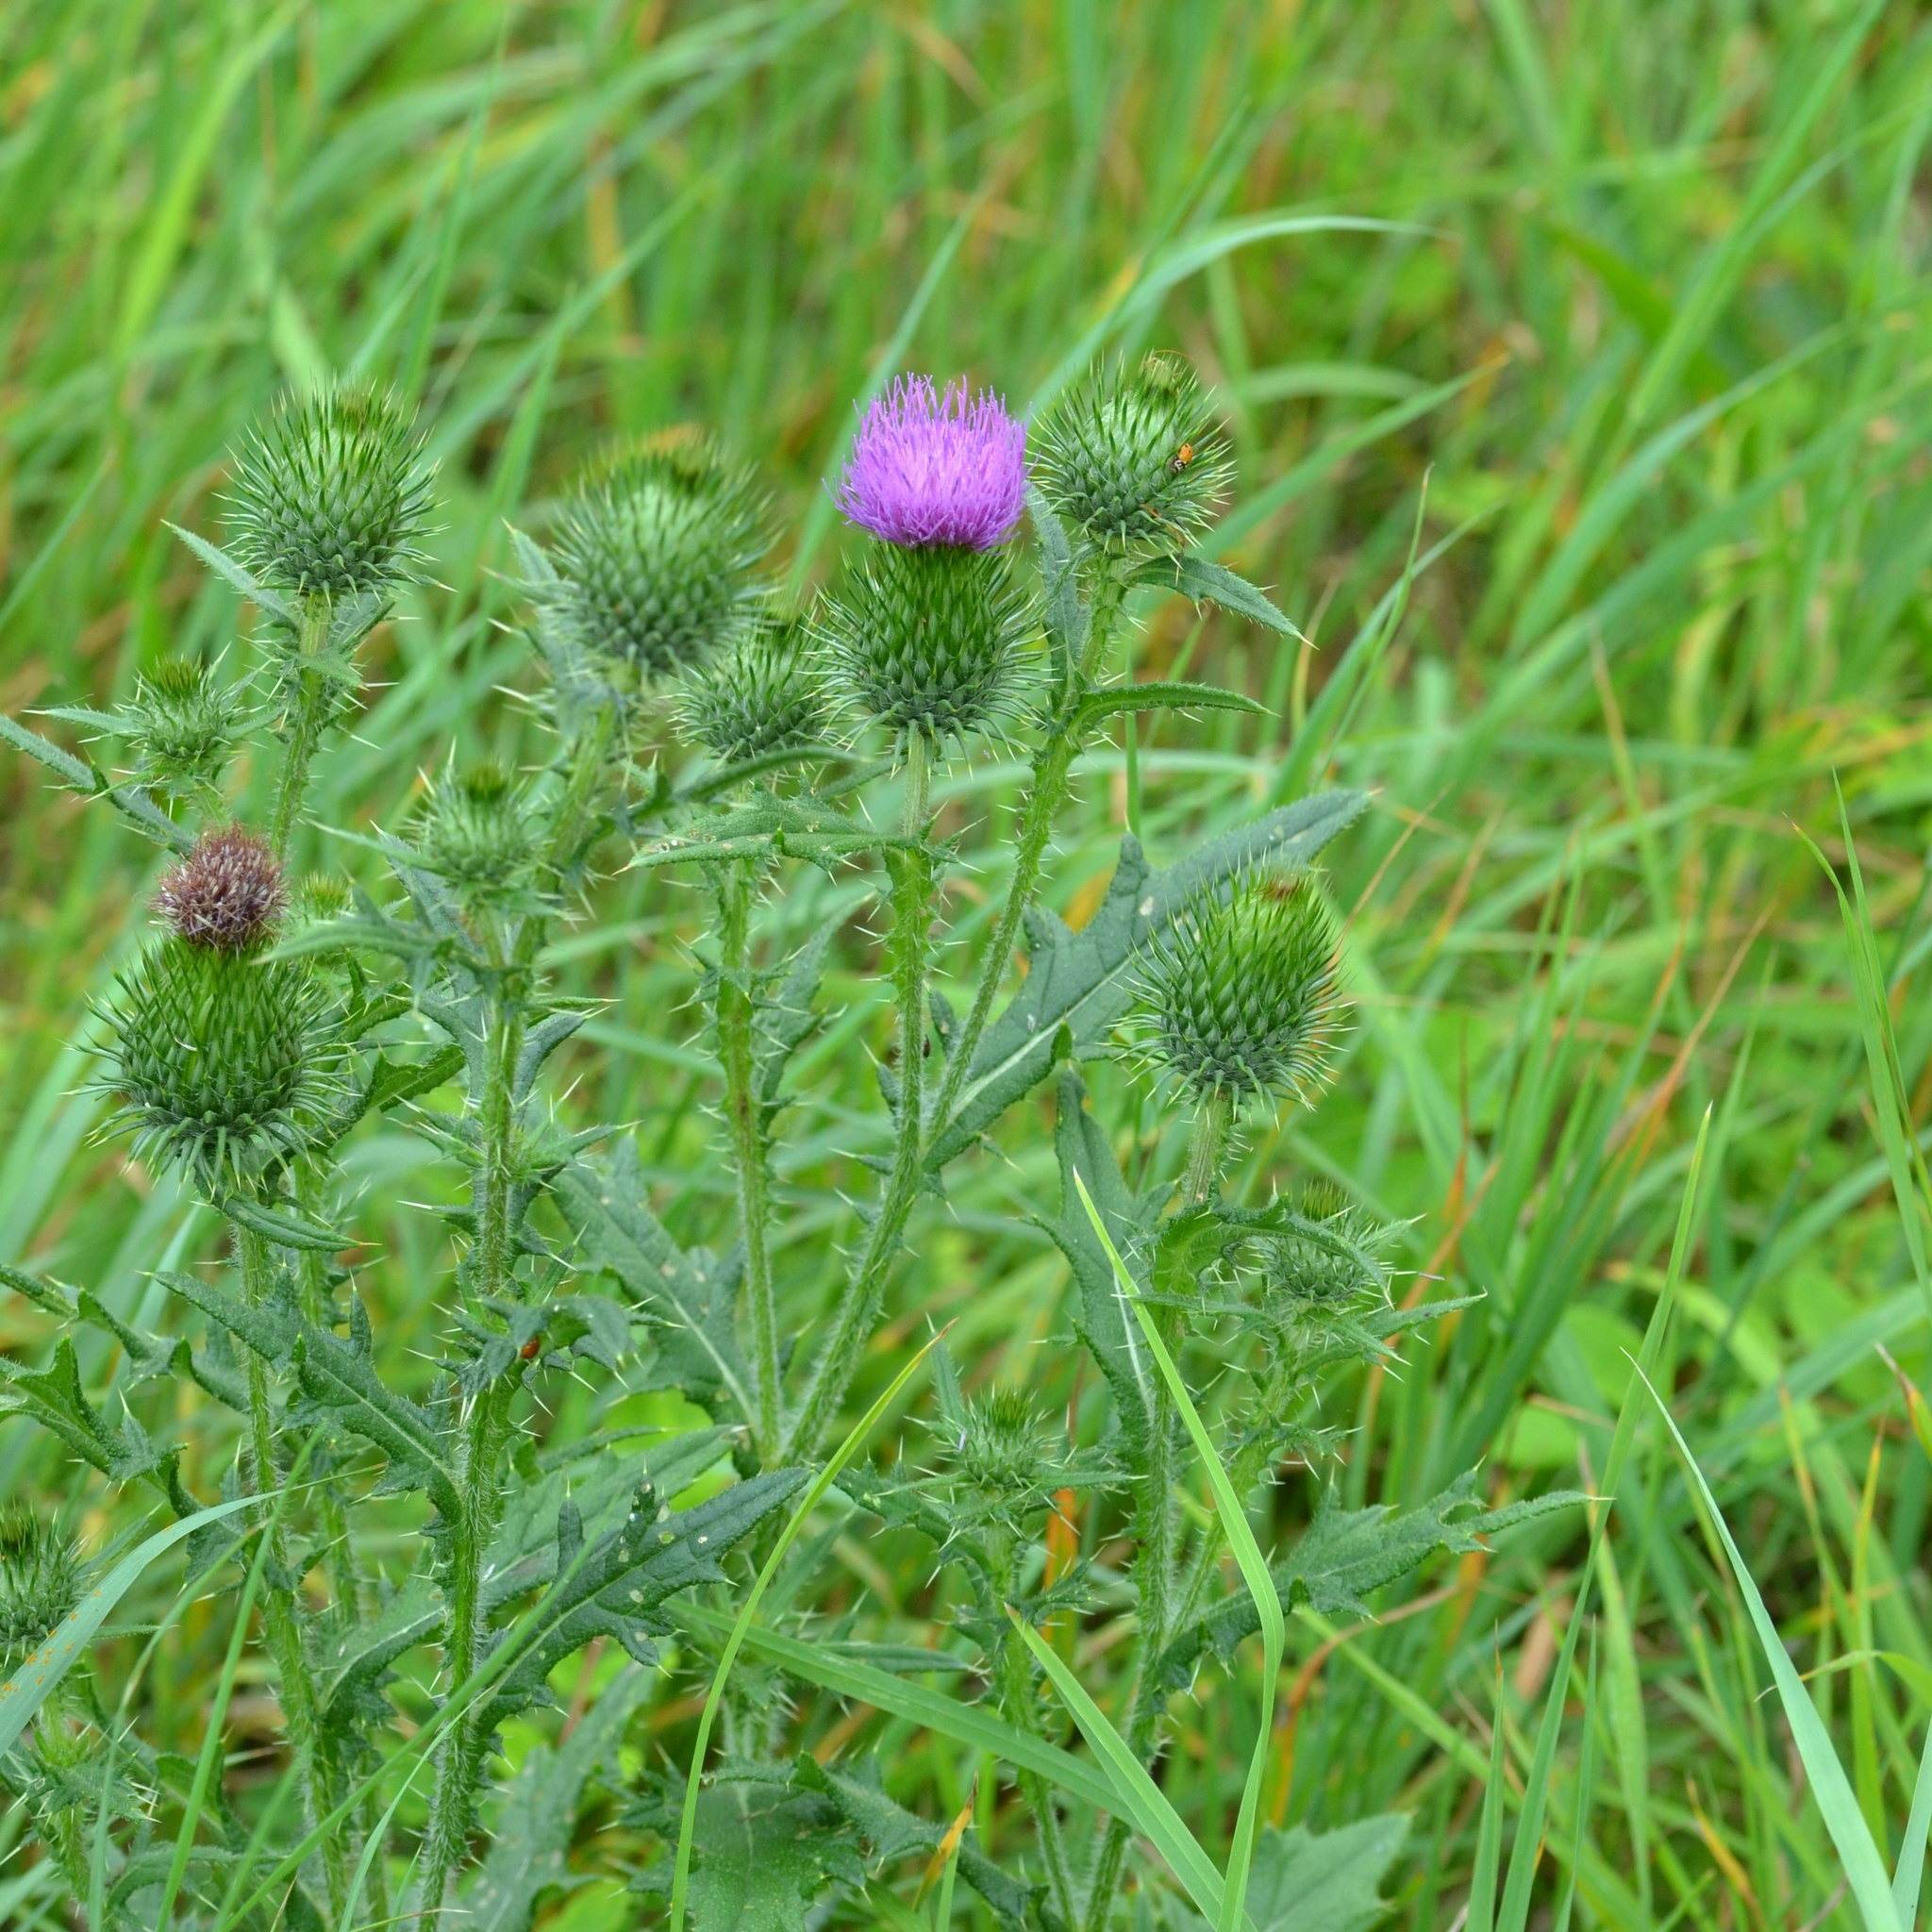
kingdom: Plantae
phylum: Tracheophyta
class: Magnoliopsida
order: Asterales
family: Asteraceae
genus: Cirsium
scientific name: Cirsium vulgare
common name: Bull thistle
